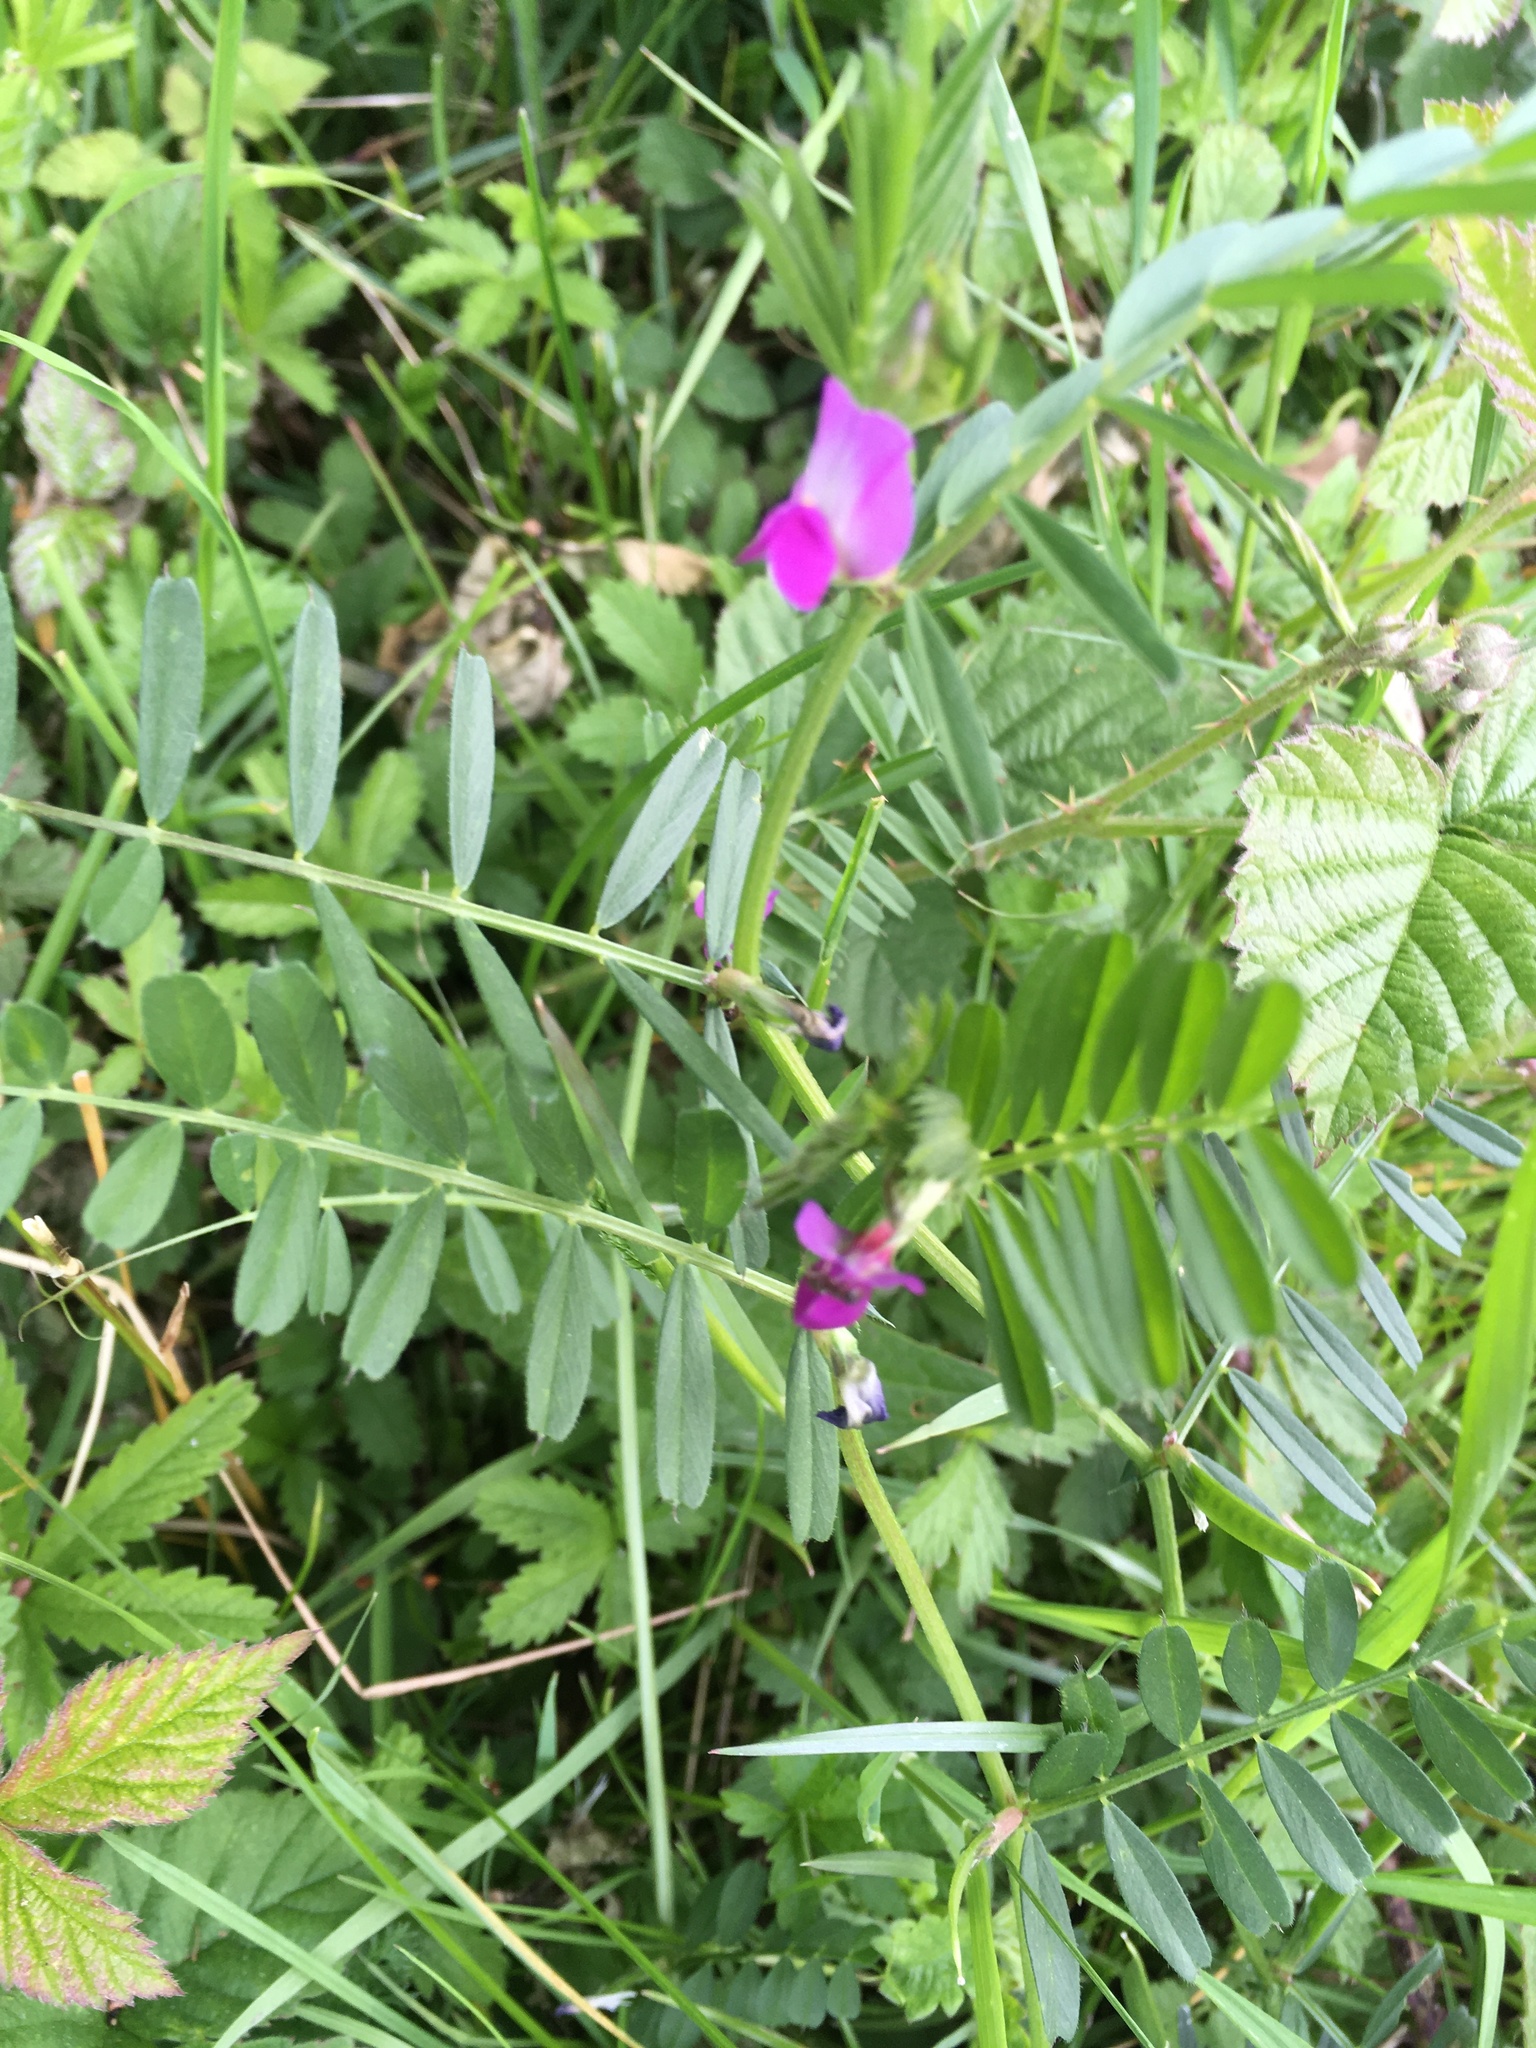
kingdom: Plantae
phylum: Tracheophyta
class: Magnoliopsida
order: Fabales
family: Fabaceae
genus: Vicia
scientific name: Vicia sativa
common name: Garden vetch
